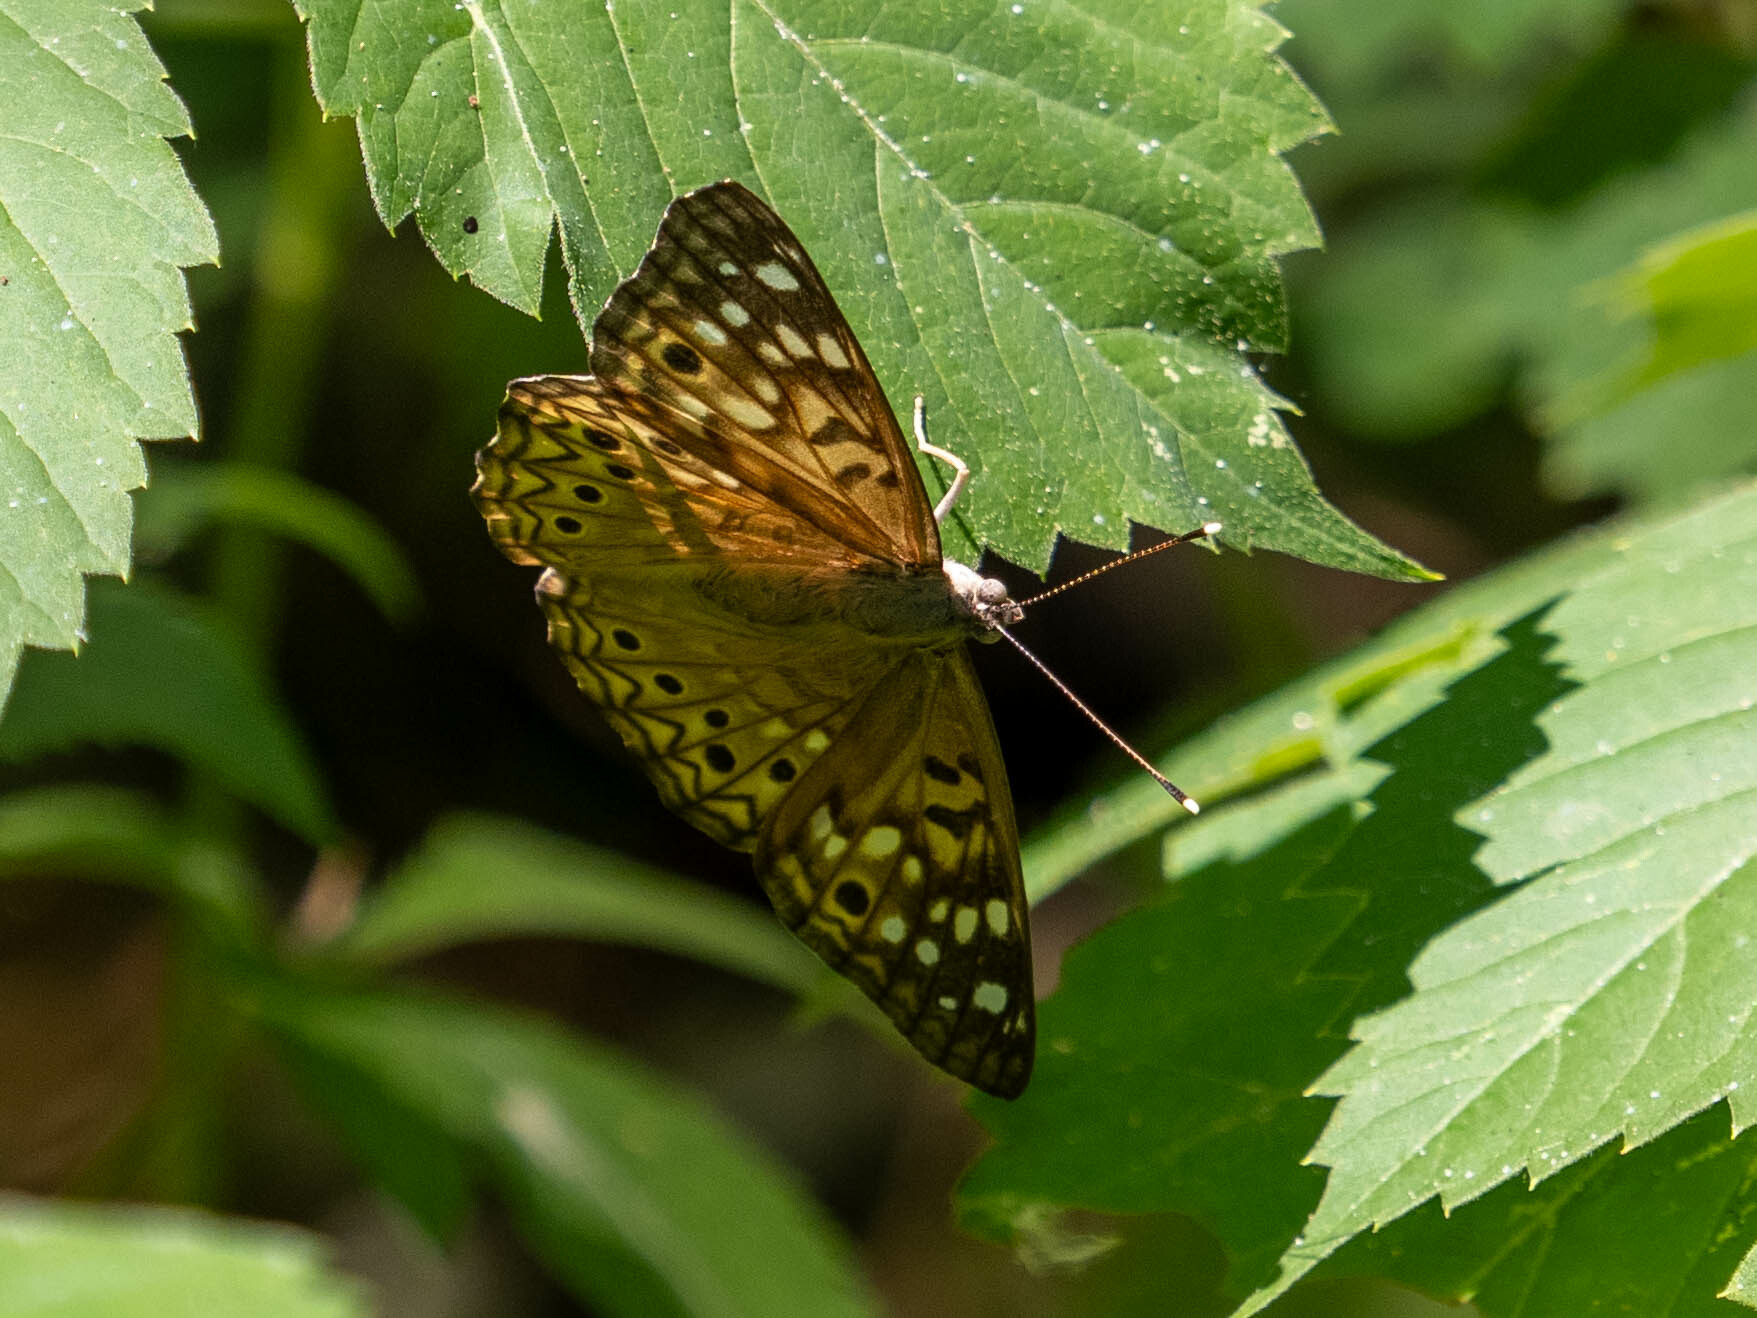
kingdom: Animalia
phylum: Arthropoda
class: Insecta
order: Lepidoptera
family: Nymphalidae
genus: Asterocampa
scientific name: Asterocampa celtis
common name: Hackberry emperor
